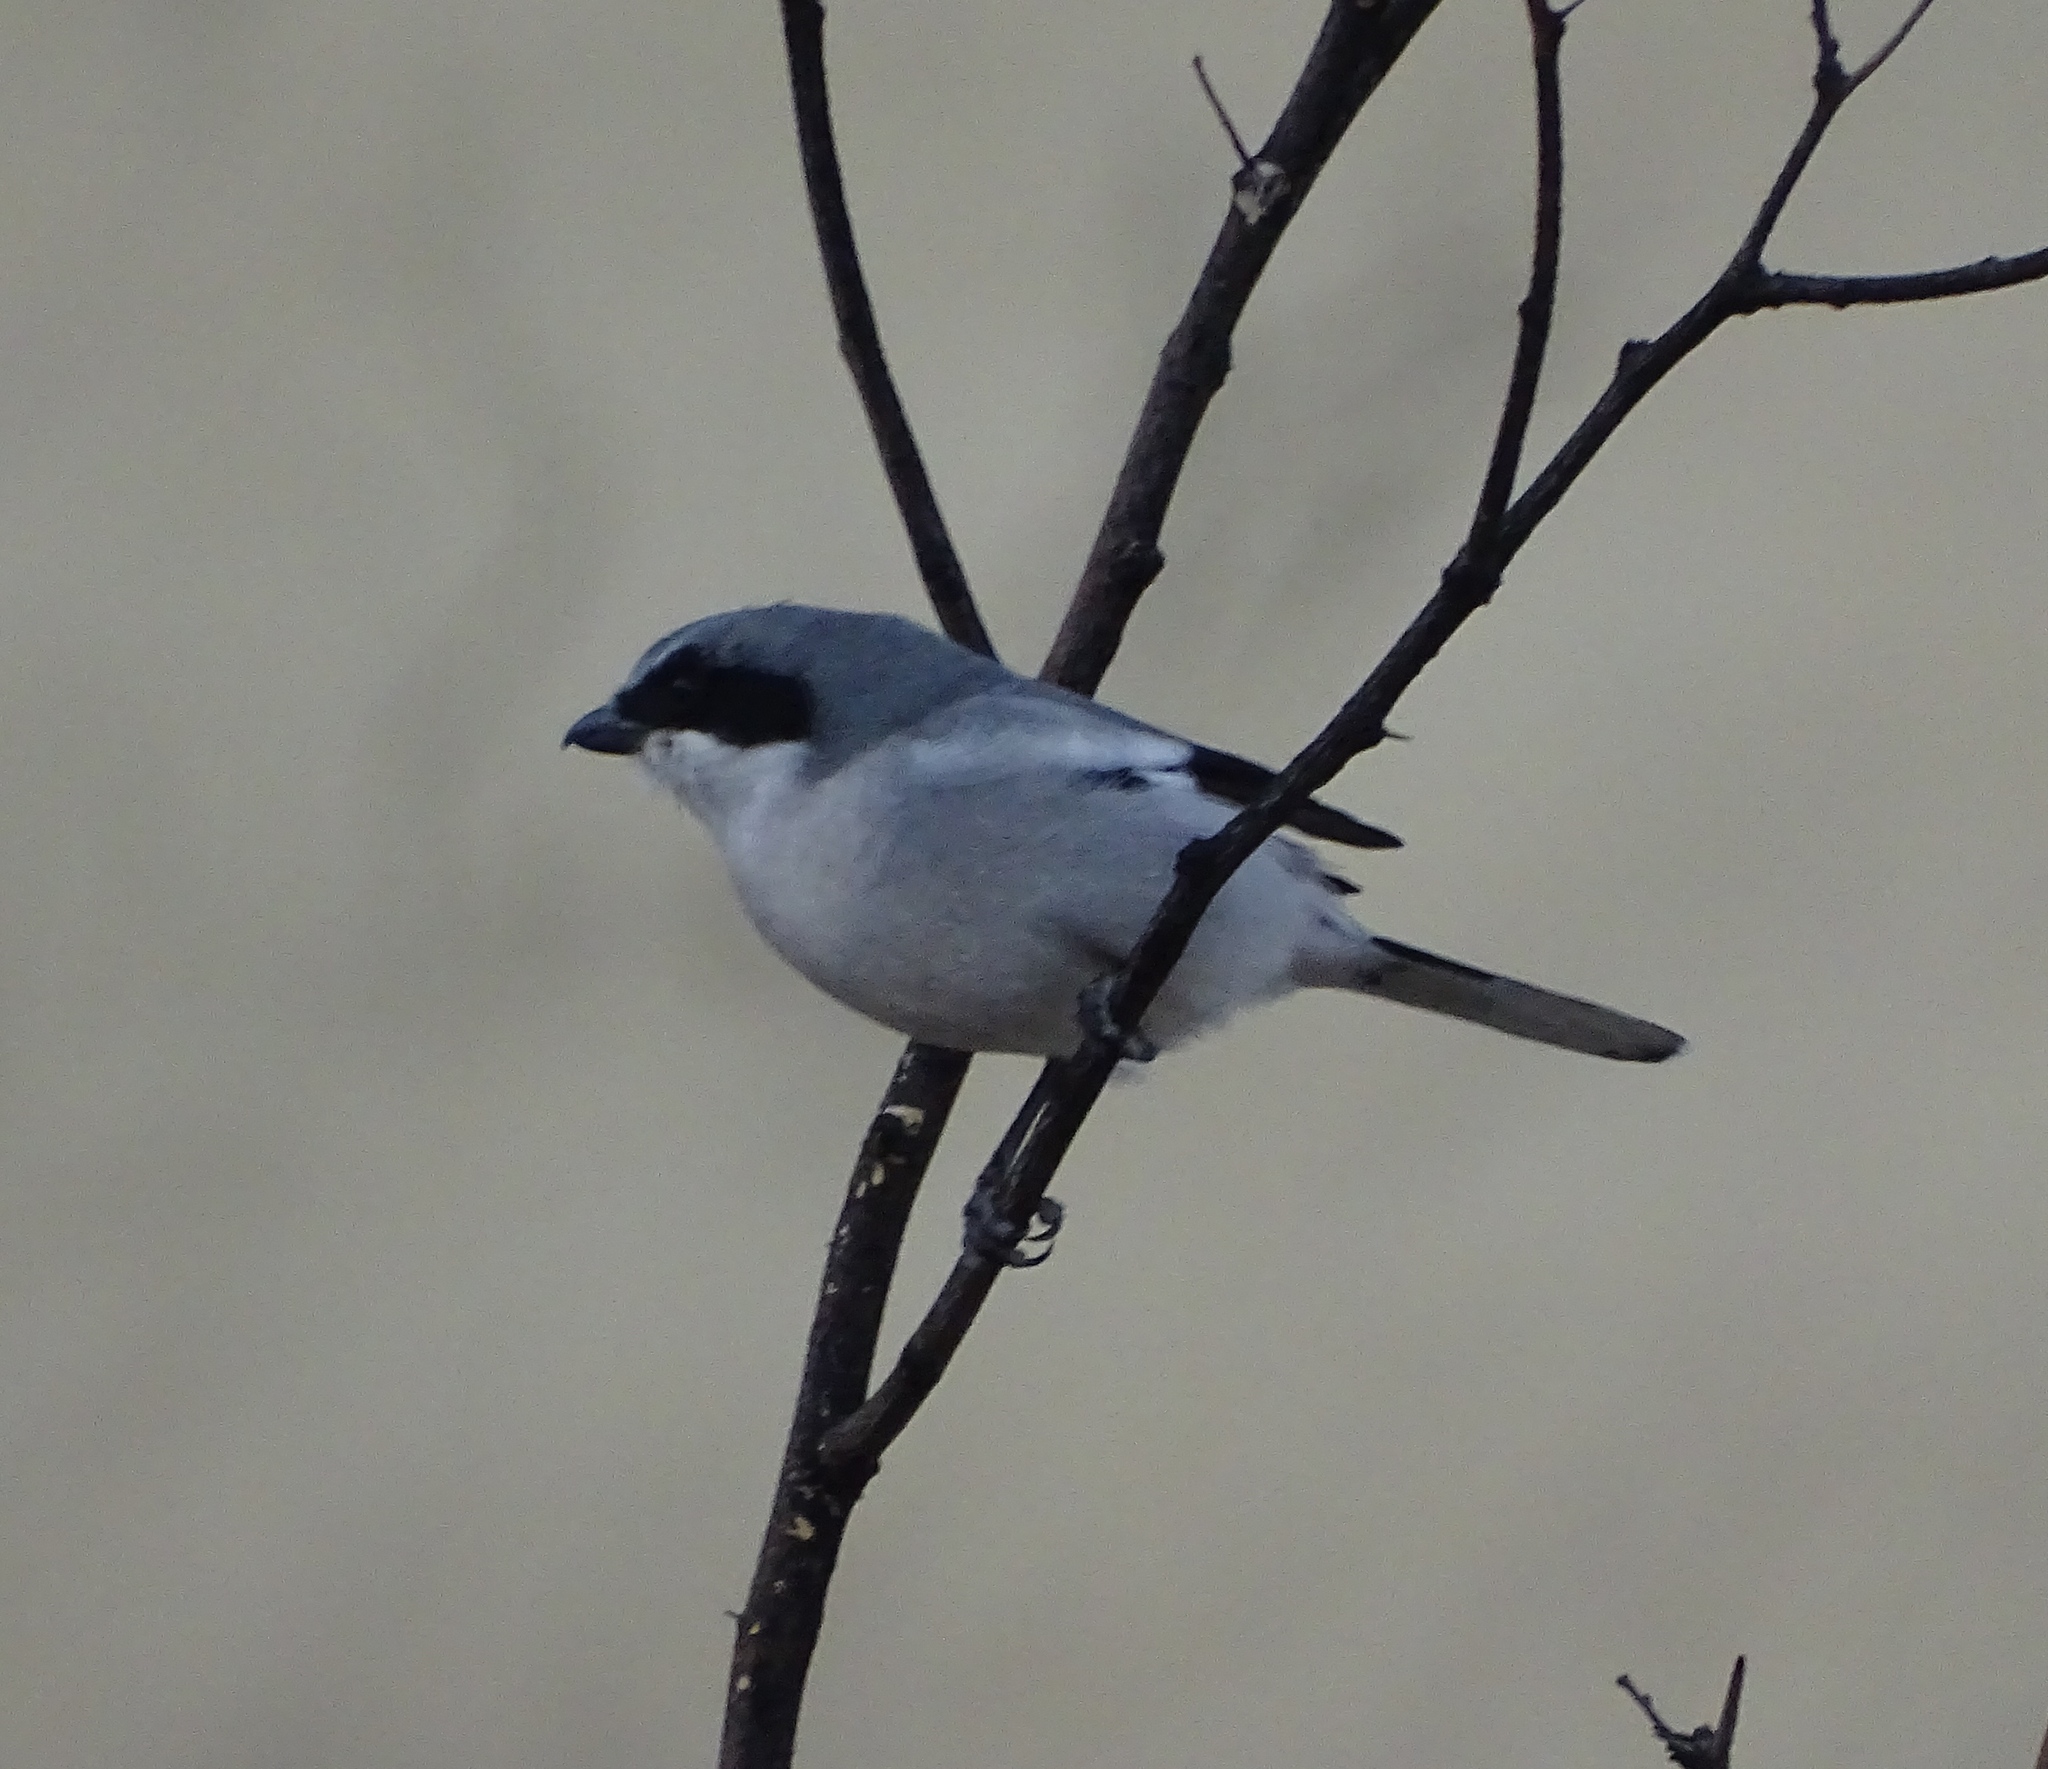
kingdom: Animalia
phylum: Chordata
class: Aves
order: Passeriformes
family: Laniidae
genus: Lanius
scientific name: Lanius ludovicianus
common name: Loggerhead shrike
